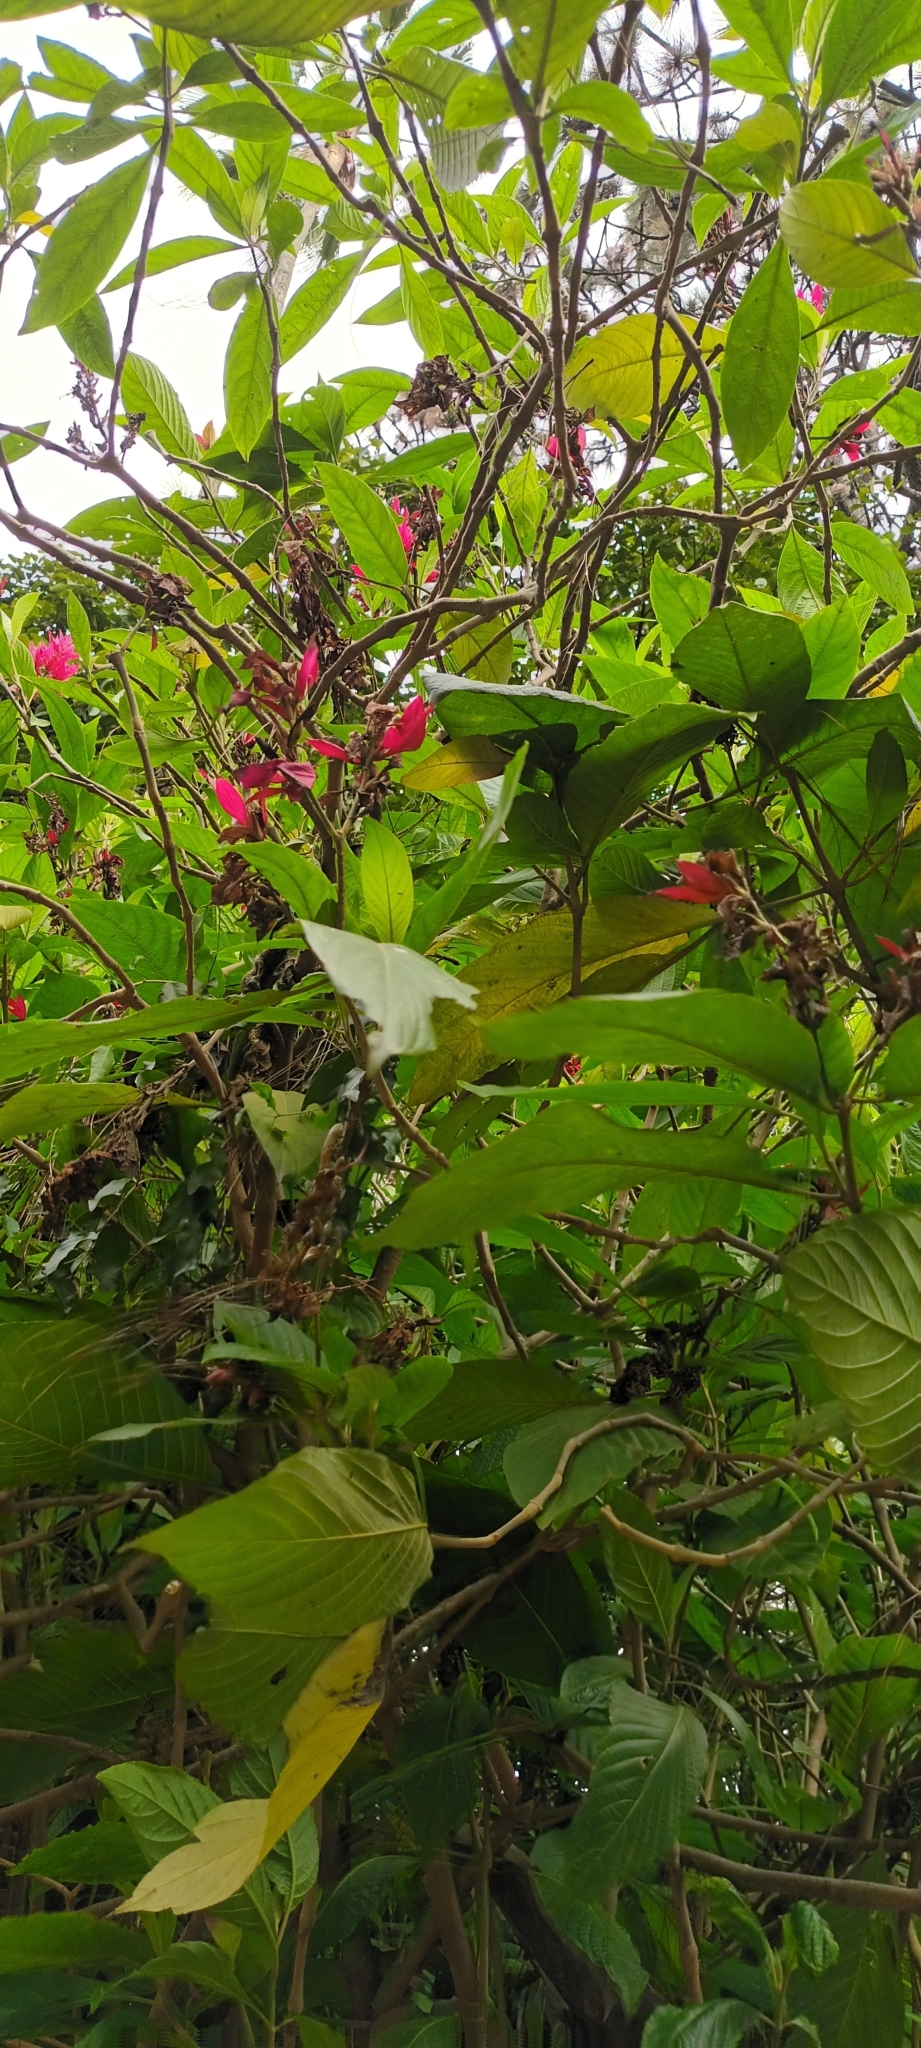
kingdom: Plantae
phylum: Tracheophyta
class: Magnoliopsida
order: Lamiales
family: Acanthaceae
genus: Megaskepasma
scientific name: Megaskepasma erythrochlamys
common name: Brazilian red-cloak
